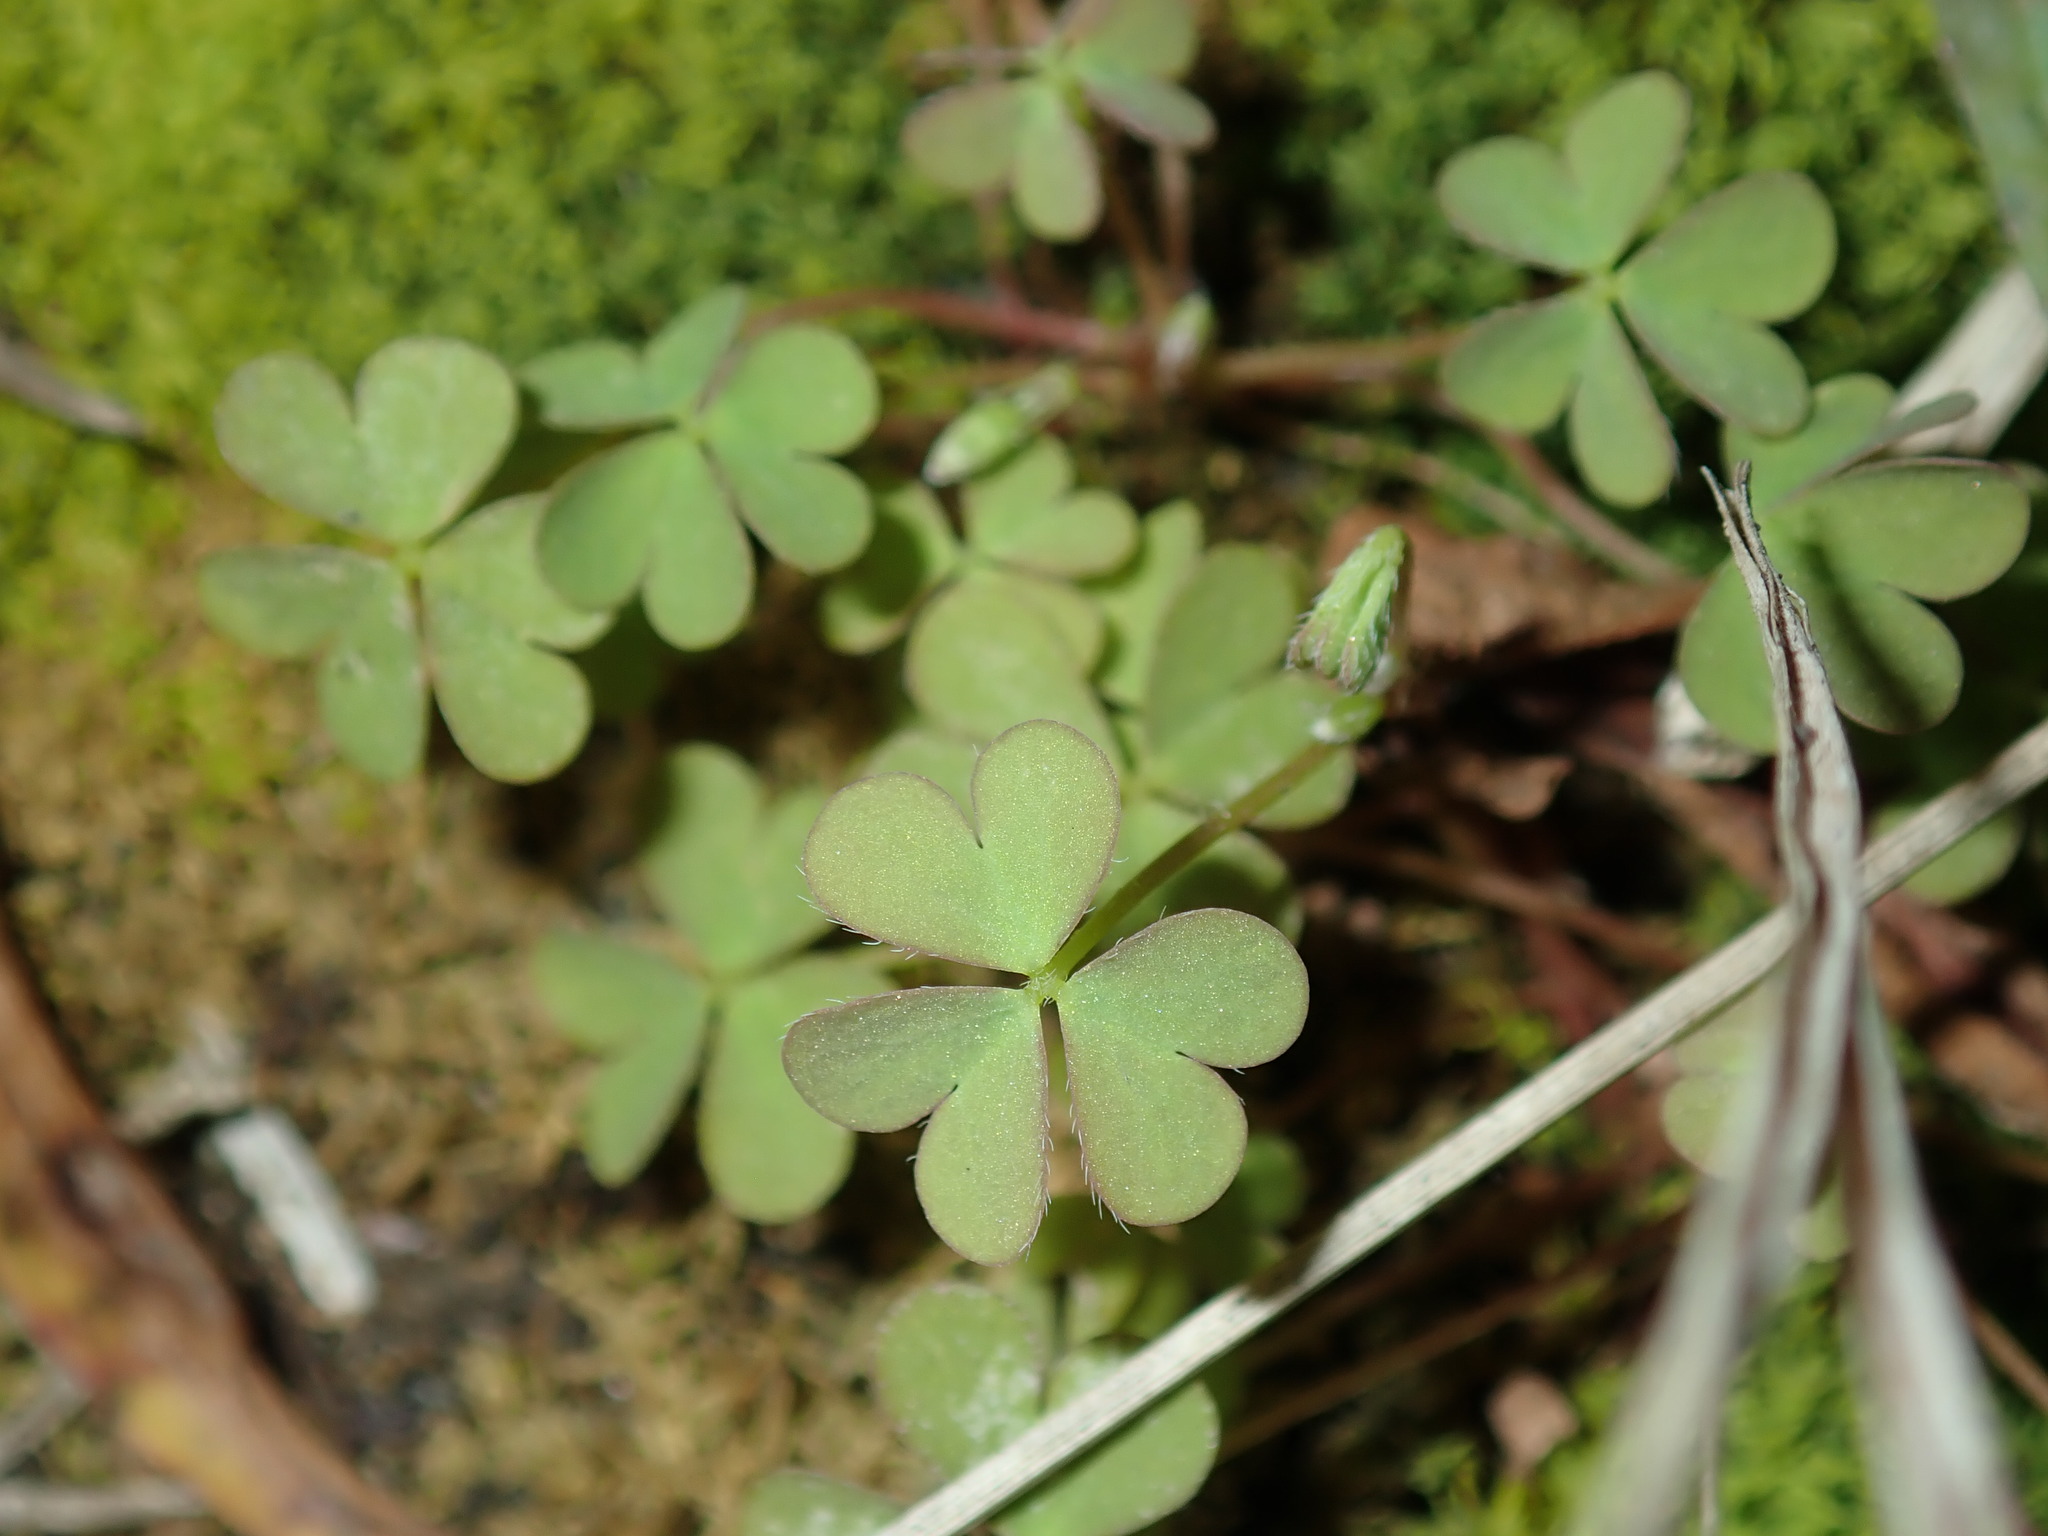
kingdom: Plantae
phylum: Tracheophyta
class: Magnoliopsida
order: Oxalidales
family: Oxalidaceae
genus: Oxalis
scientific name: Oxalis corniculata
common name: Procumbent yellow-sorrel
